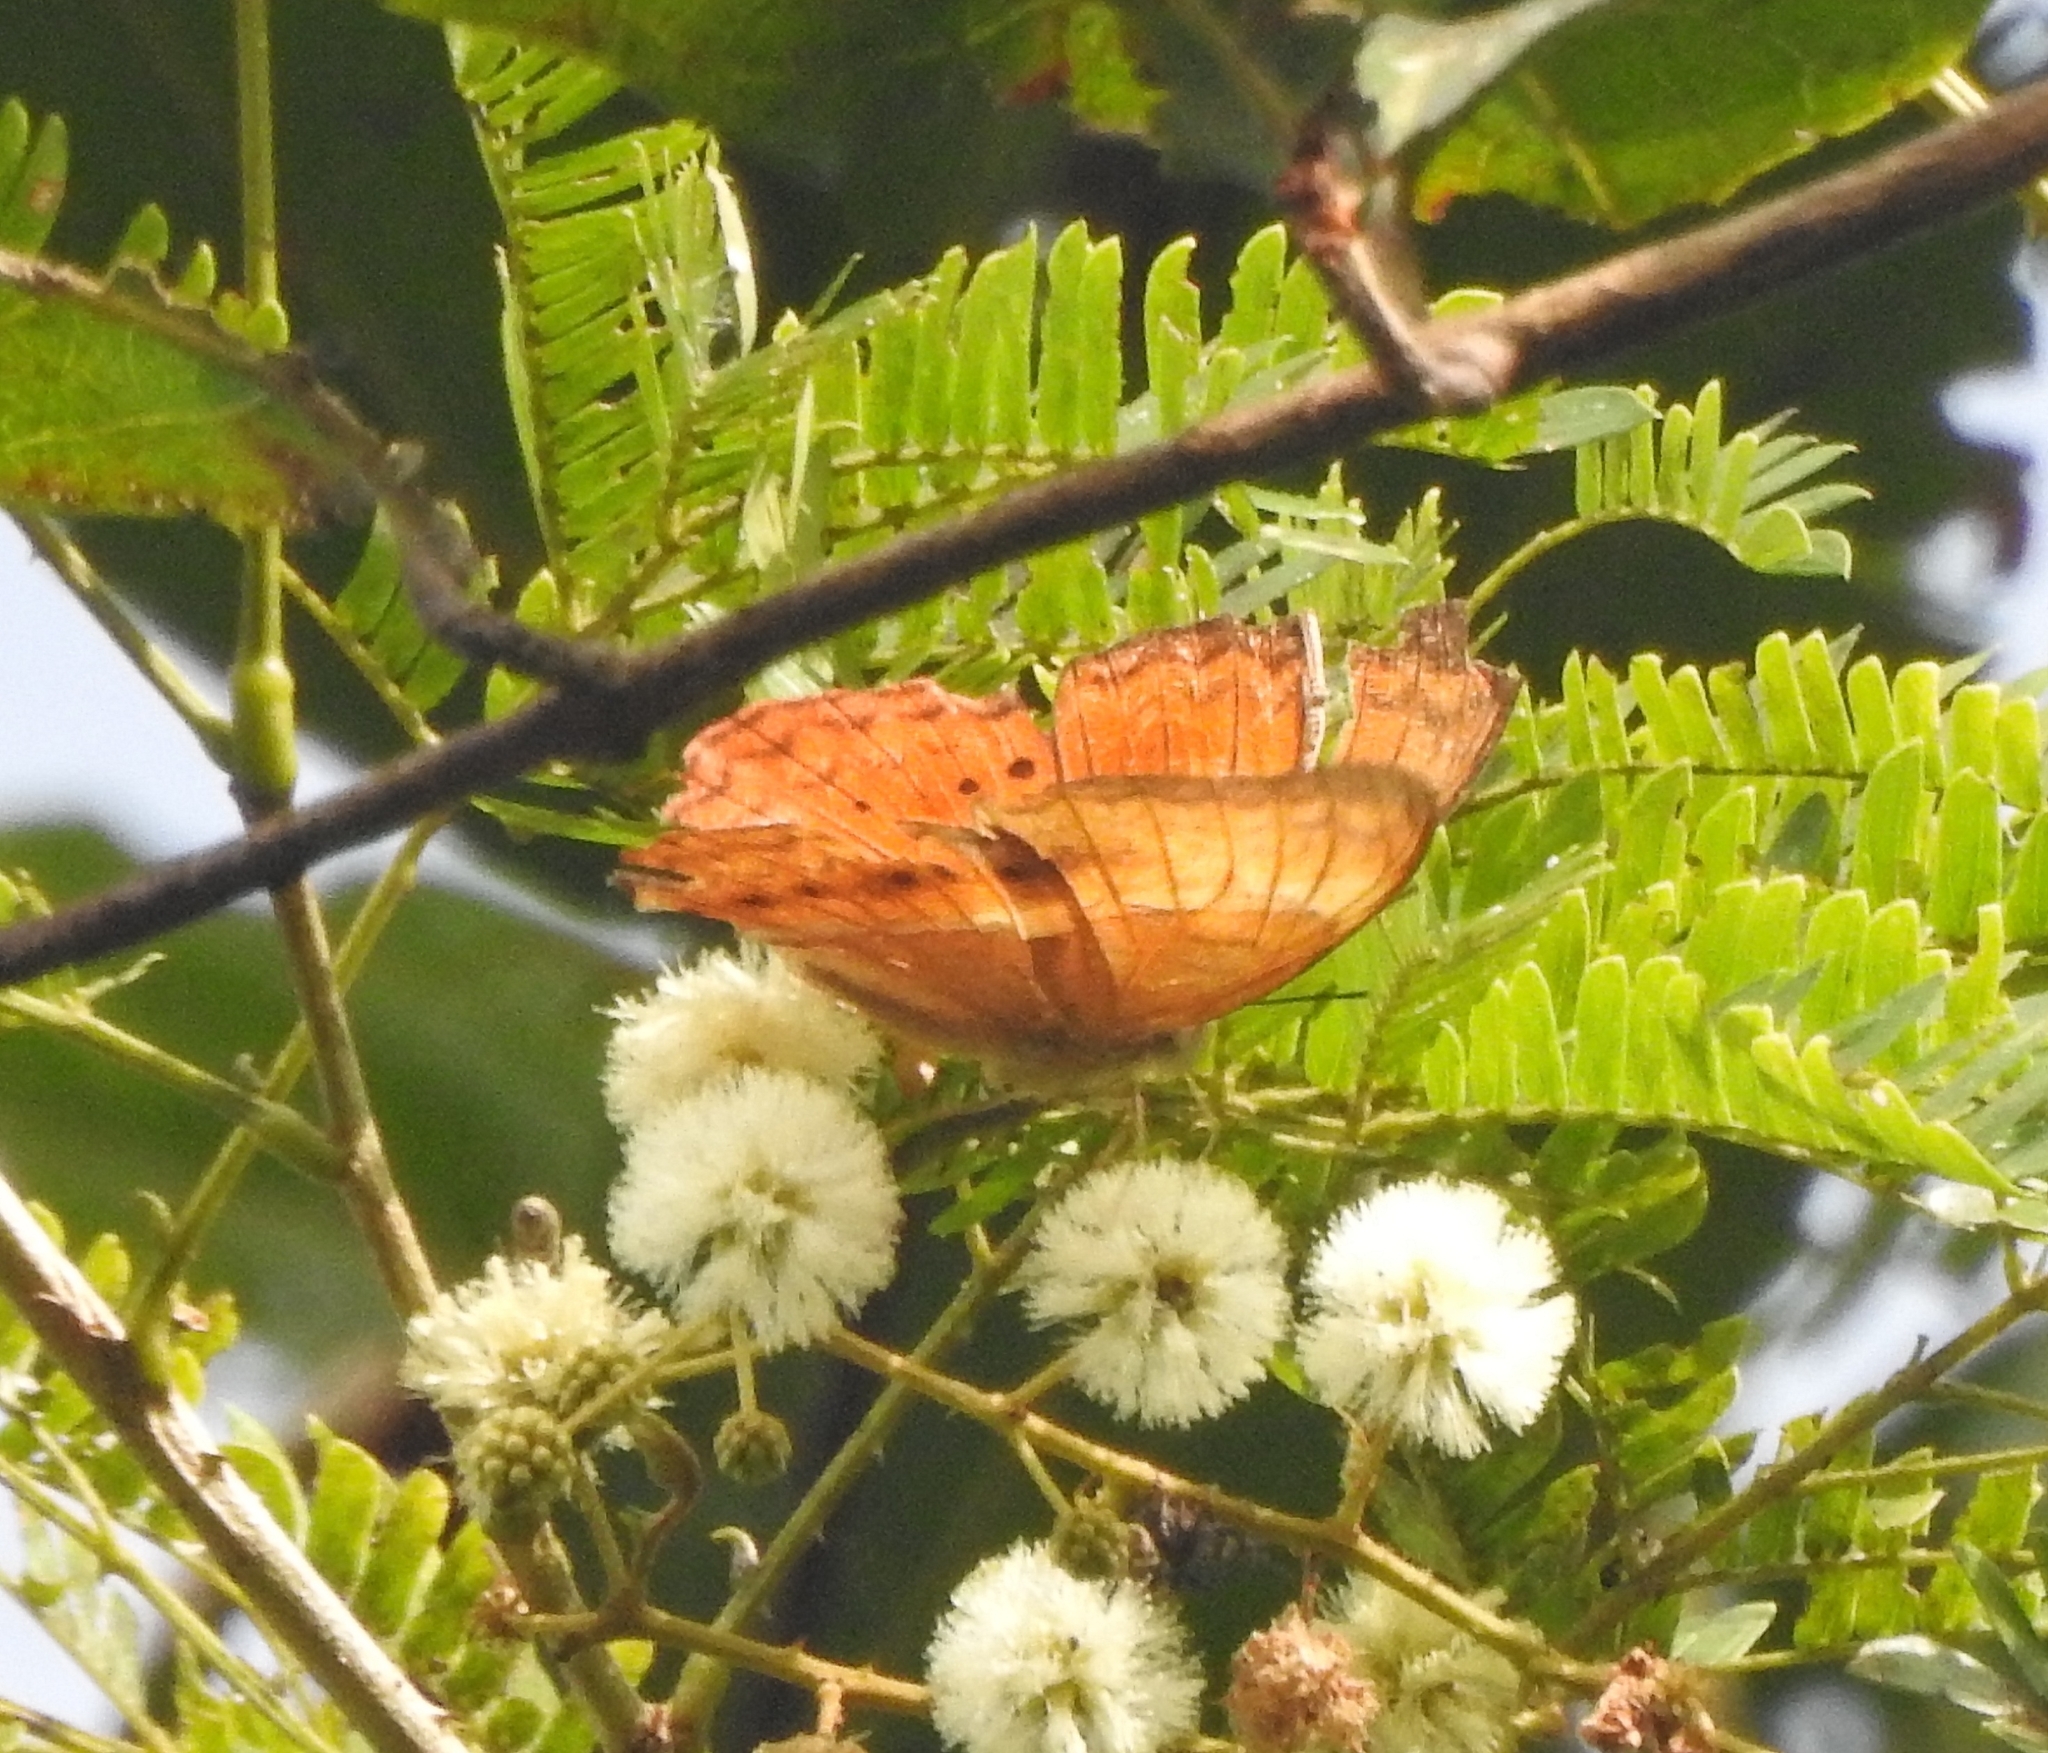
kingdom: Animalia
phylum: Arthropoda
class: Insecta
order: Lepidoptera
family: Nymphalidae
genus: Cirrochroa
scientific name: Cirrochroa thais
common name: Tamil yeoman
